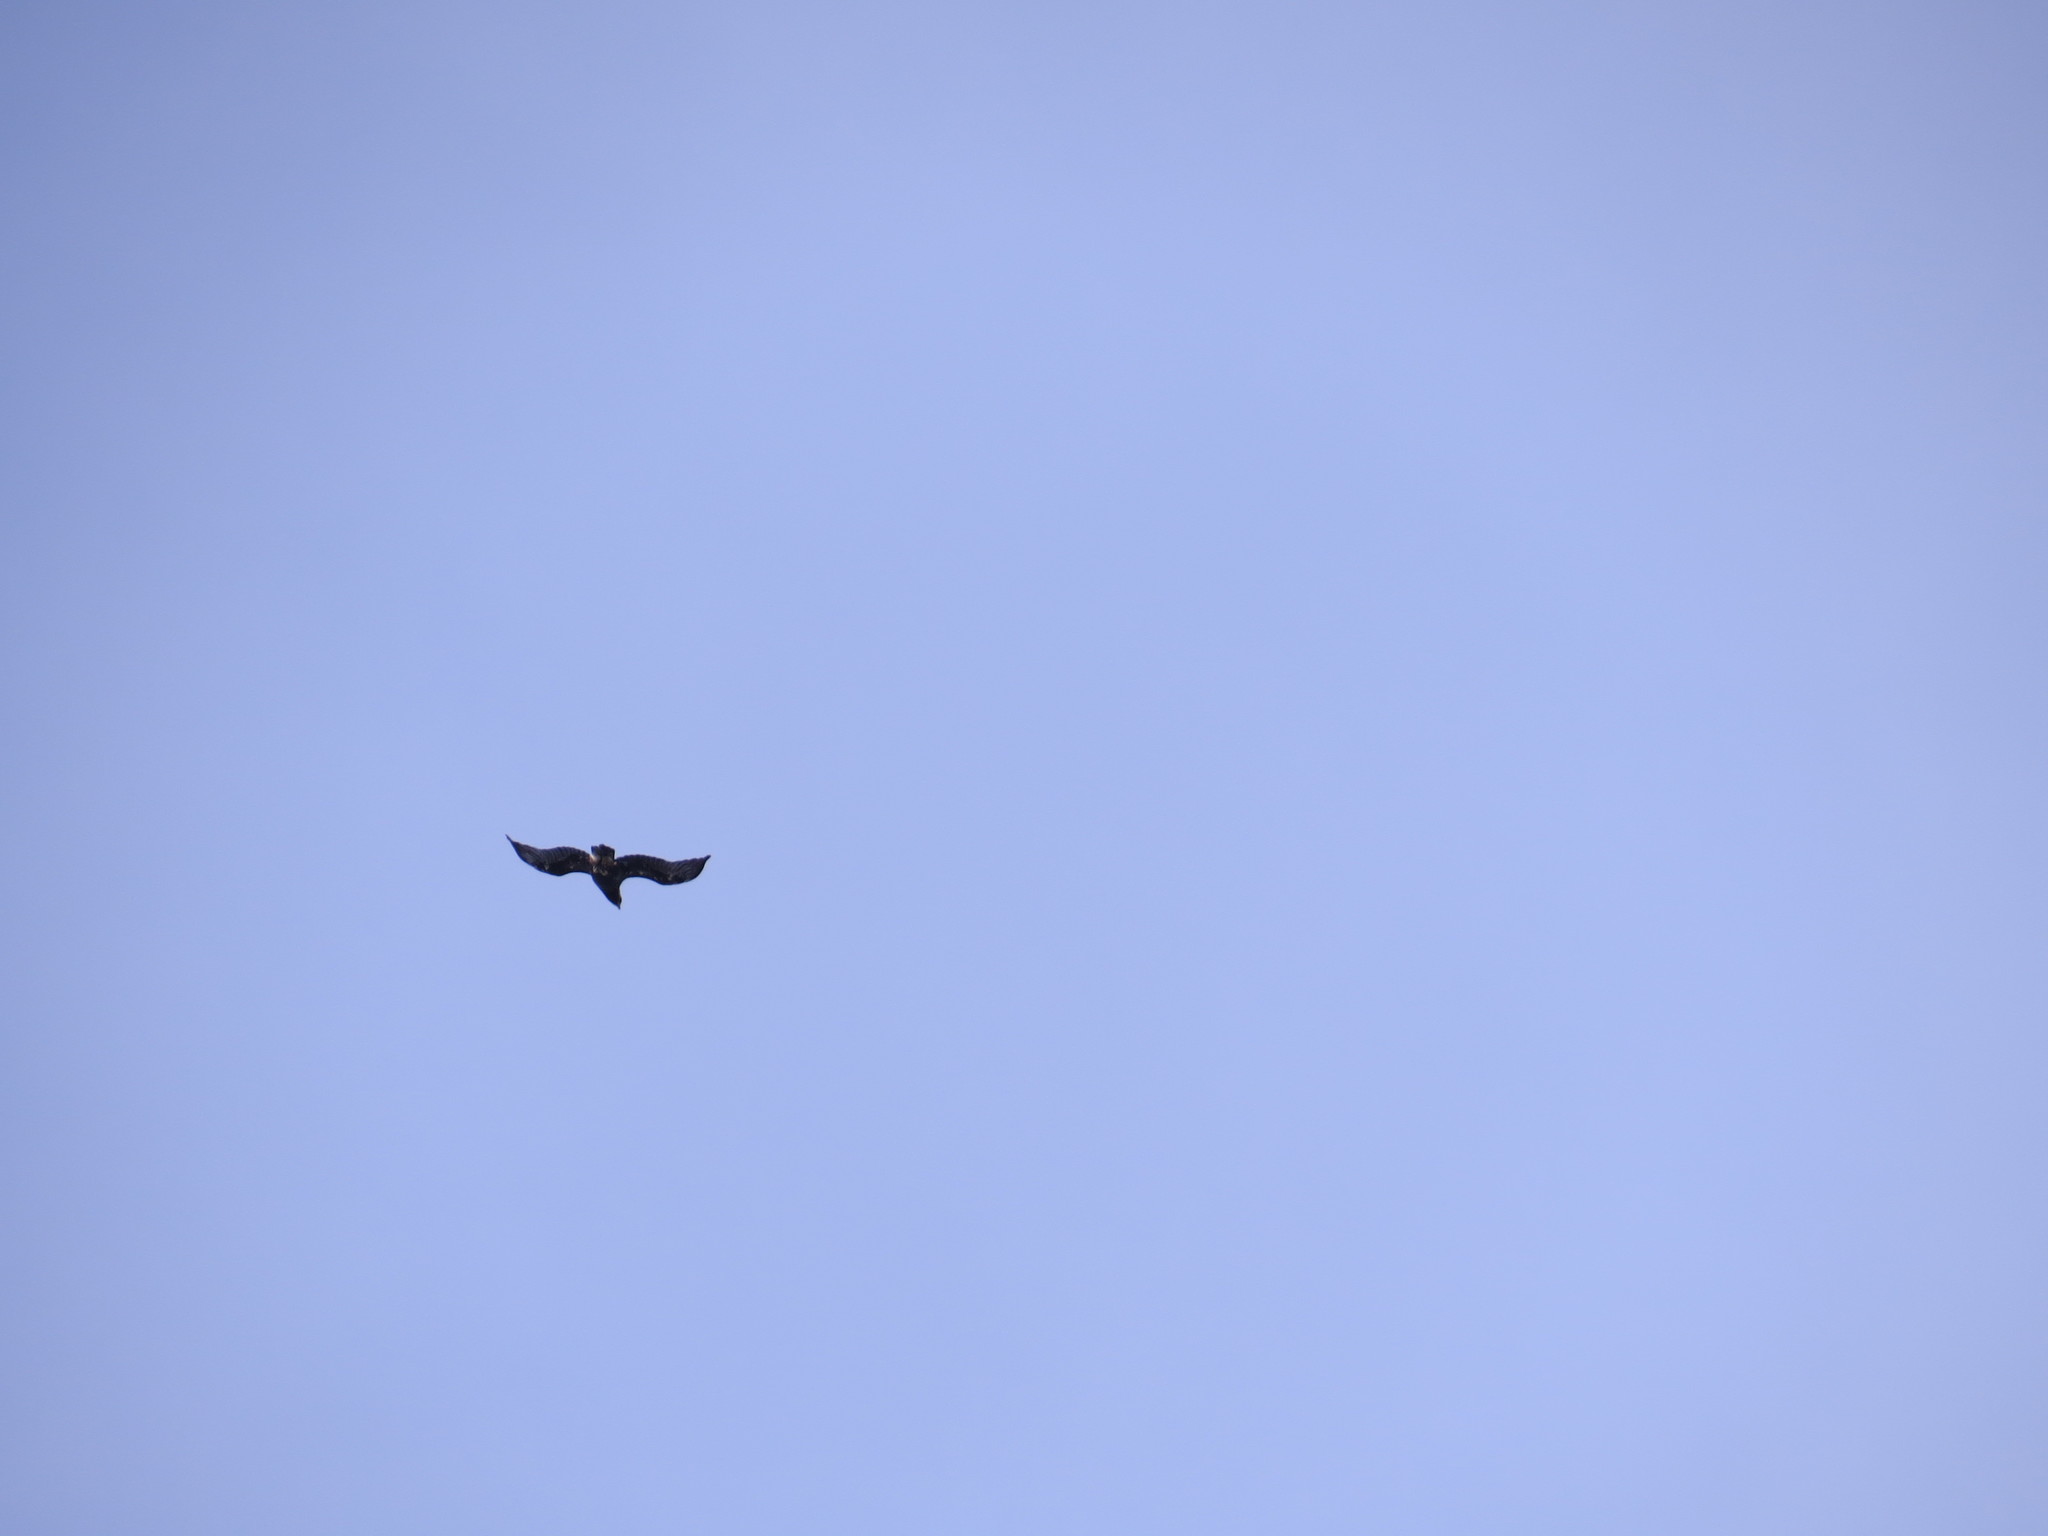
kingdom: Animalia
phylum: Chordata
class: Aves
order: Accipitriformes
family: Accipitridae
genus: Aquila
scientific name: Aquila chrysaetos
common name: Golden eagle
